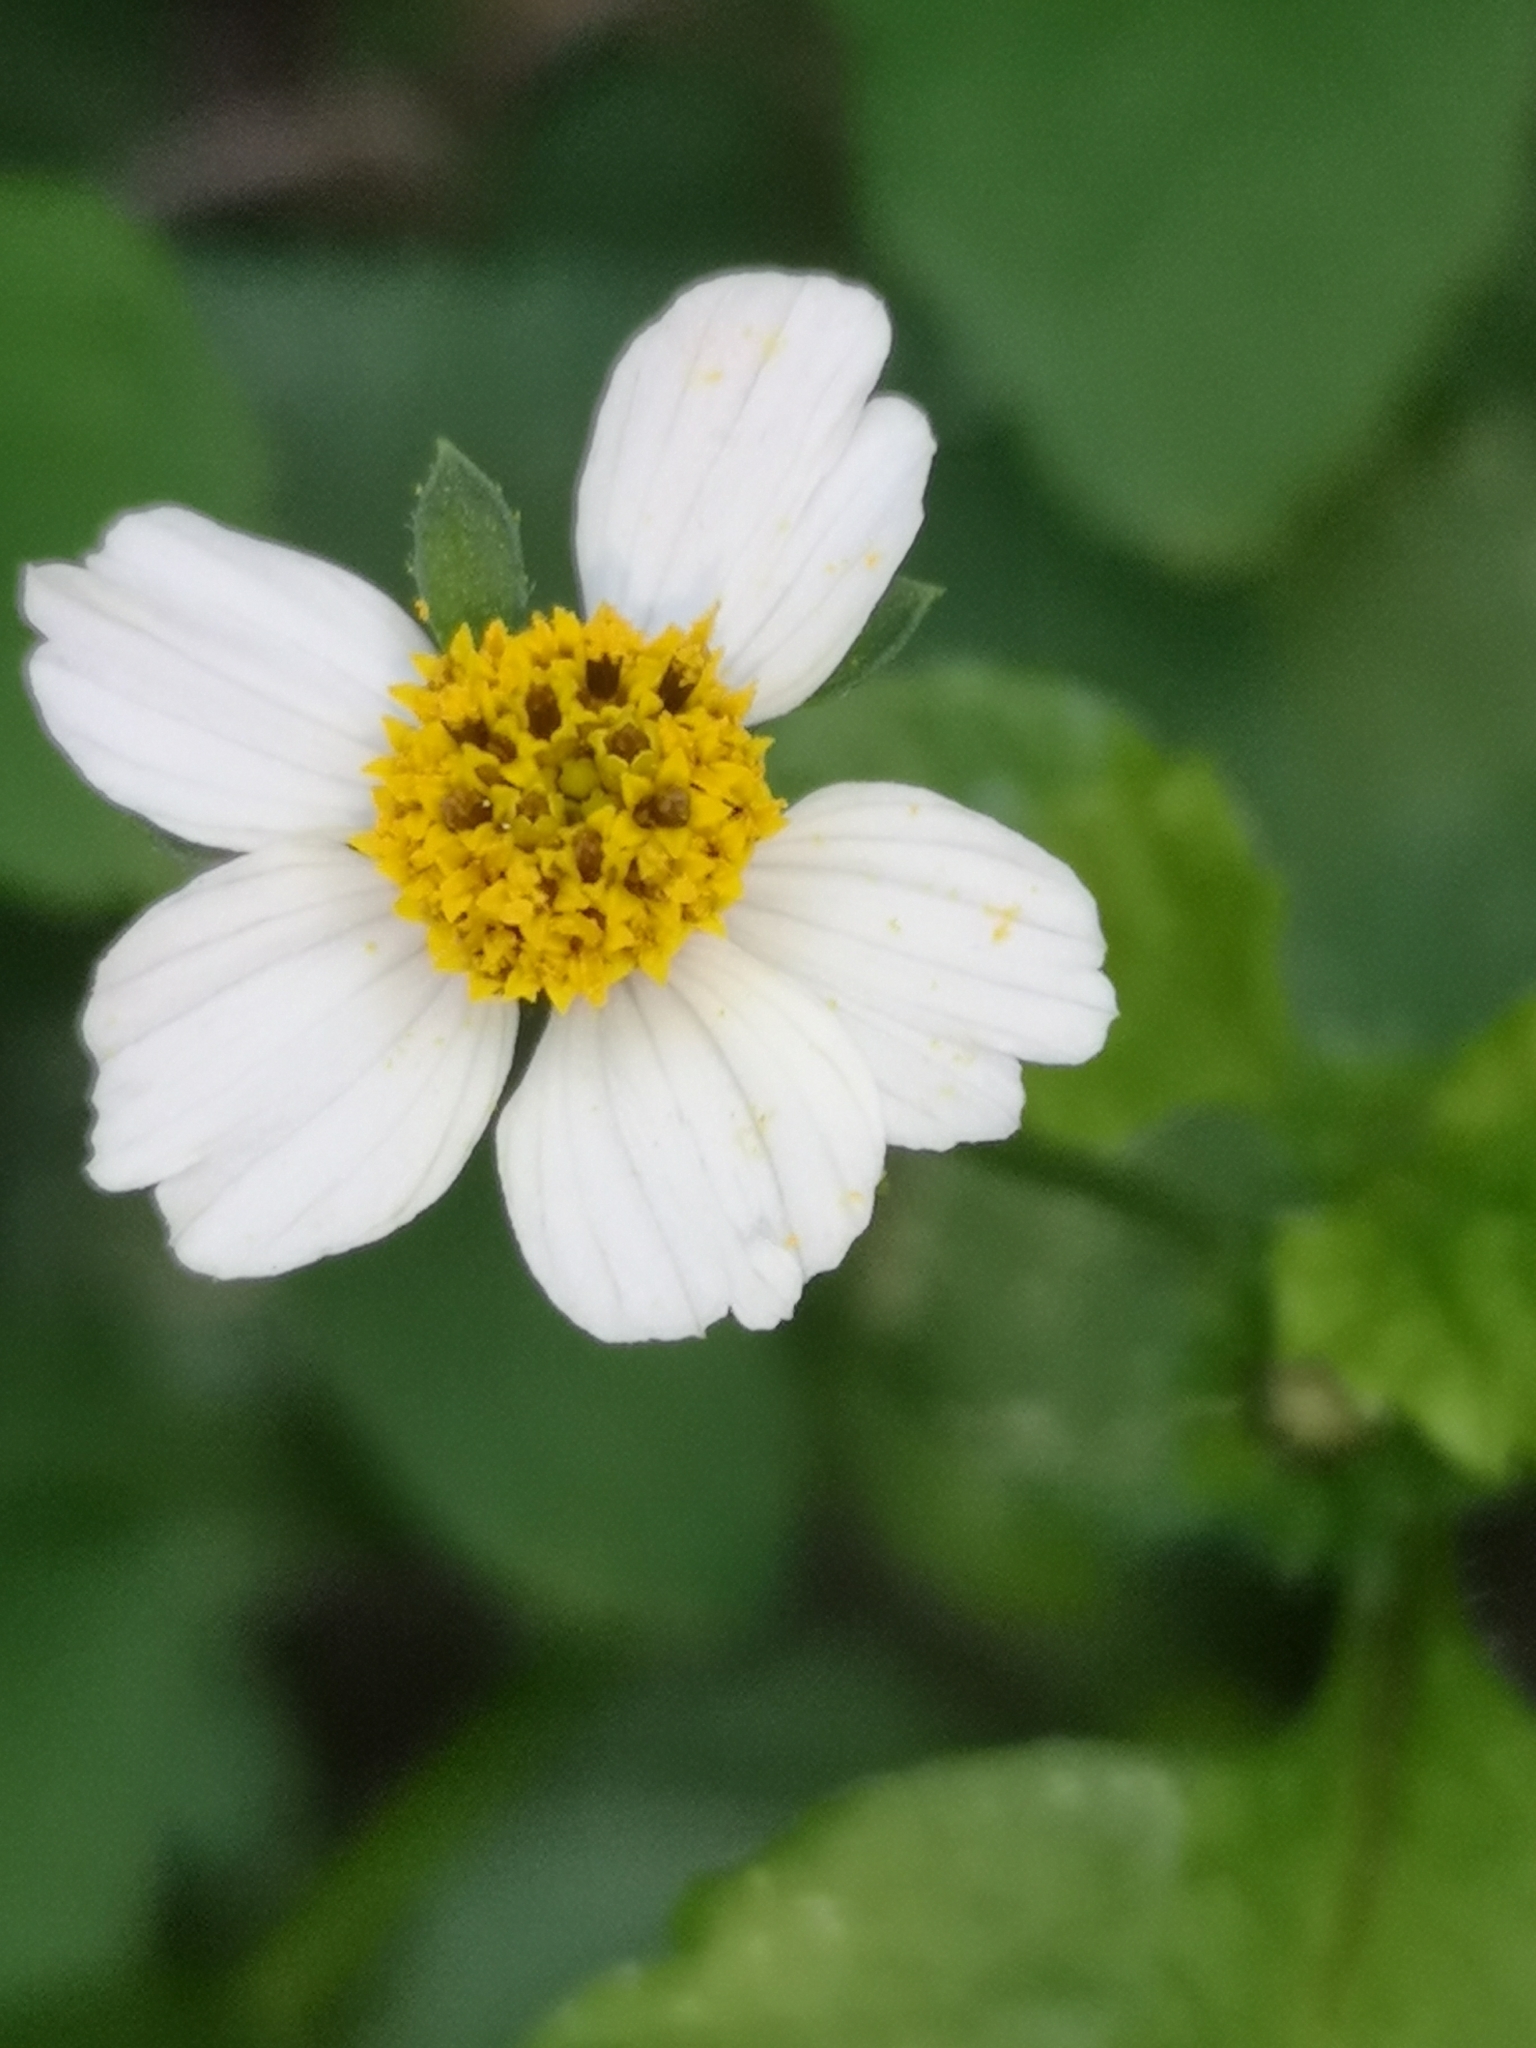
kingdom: Plantae
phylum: Tracheophyta
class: Magnoliopsida
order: Asterales
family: Asteraceae
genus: Bidens
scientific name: Bidens pilosa
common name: Black-jack
